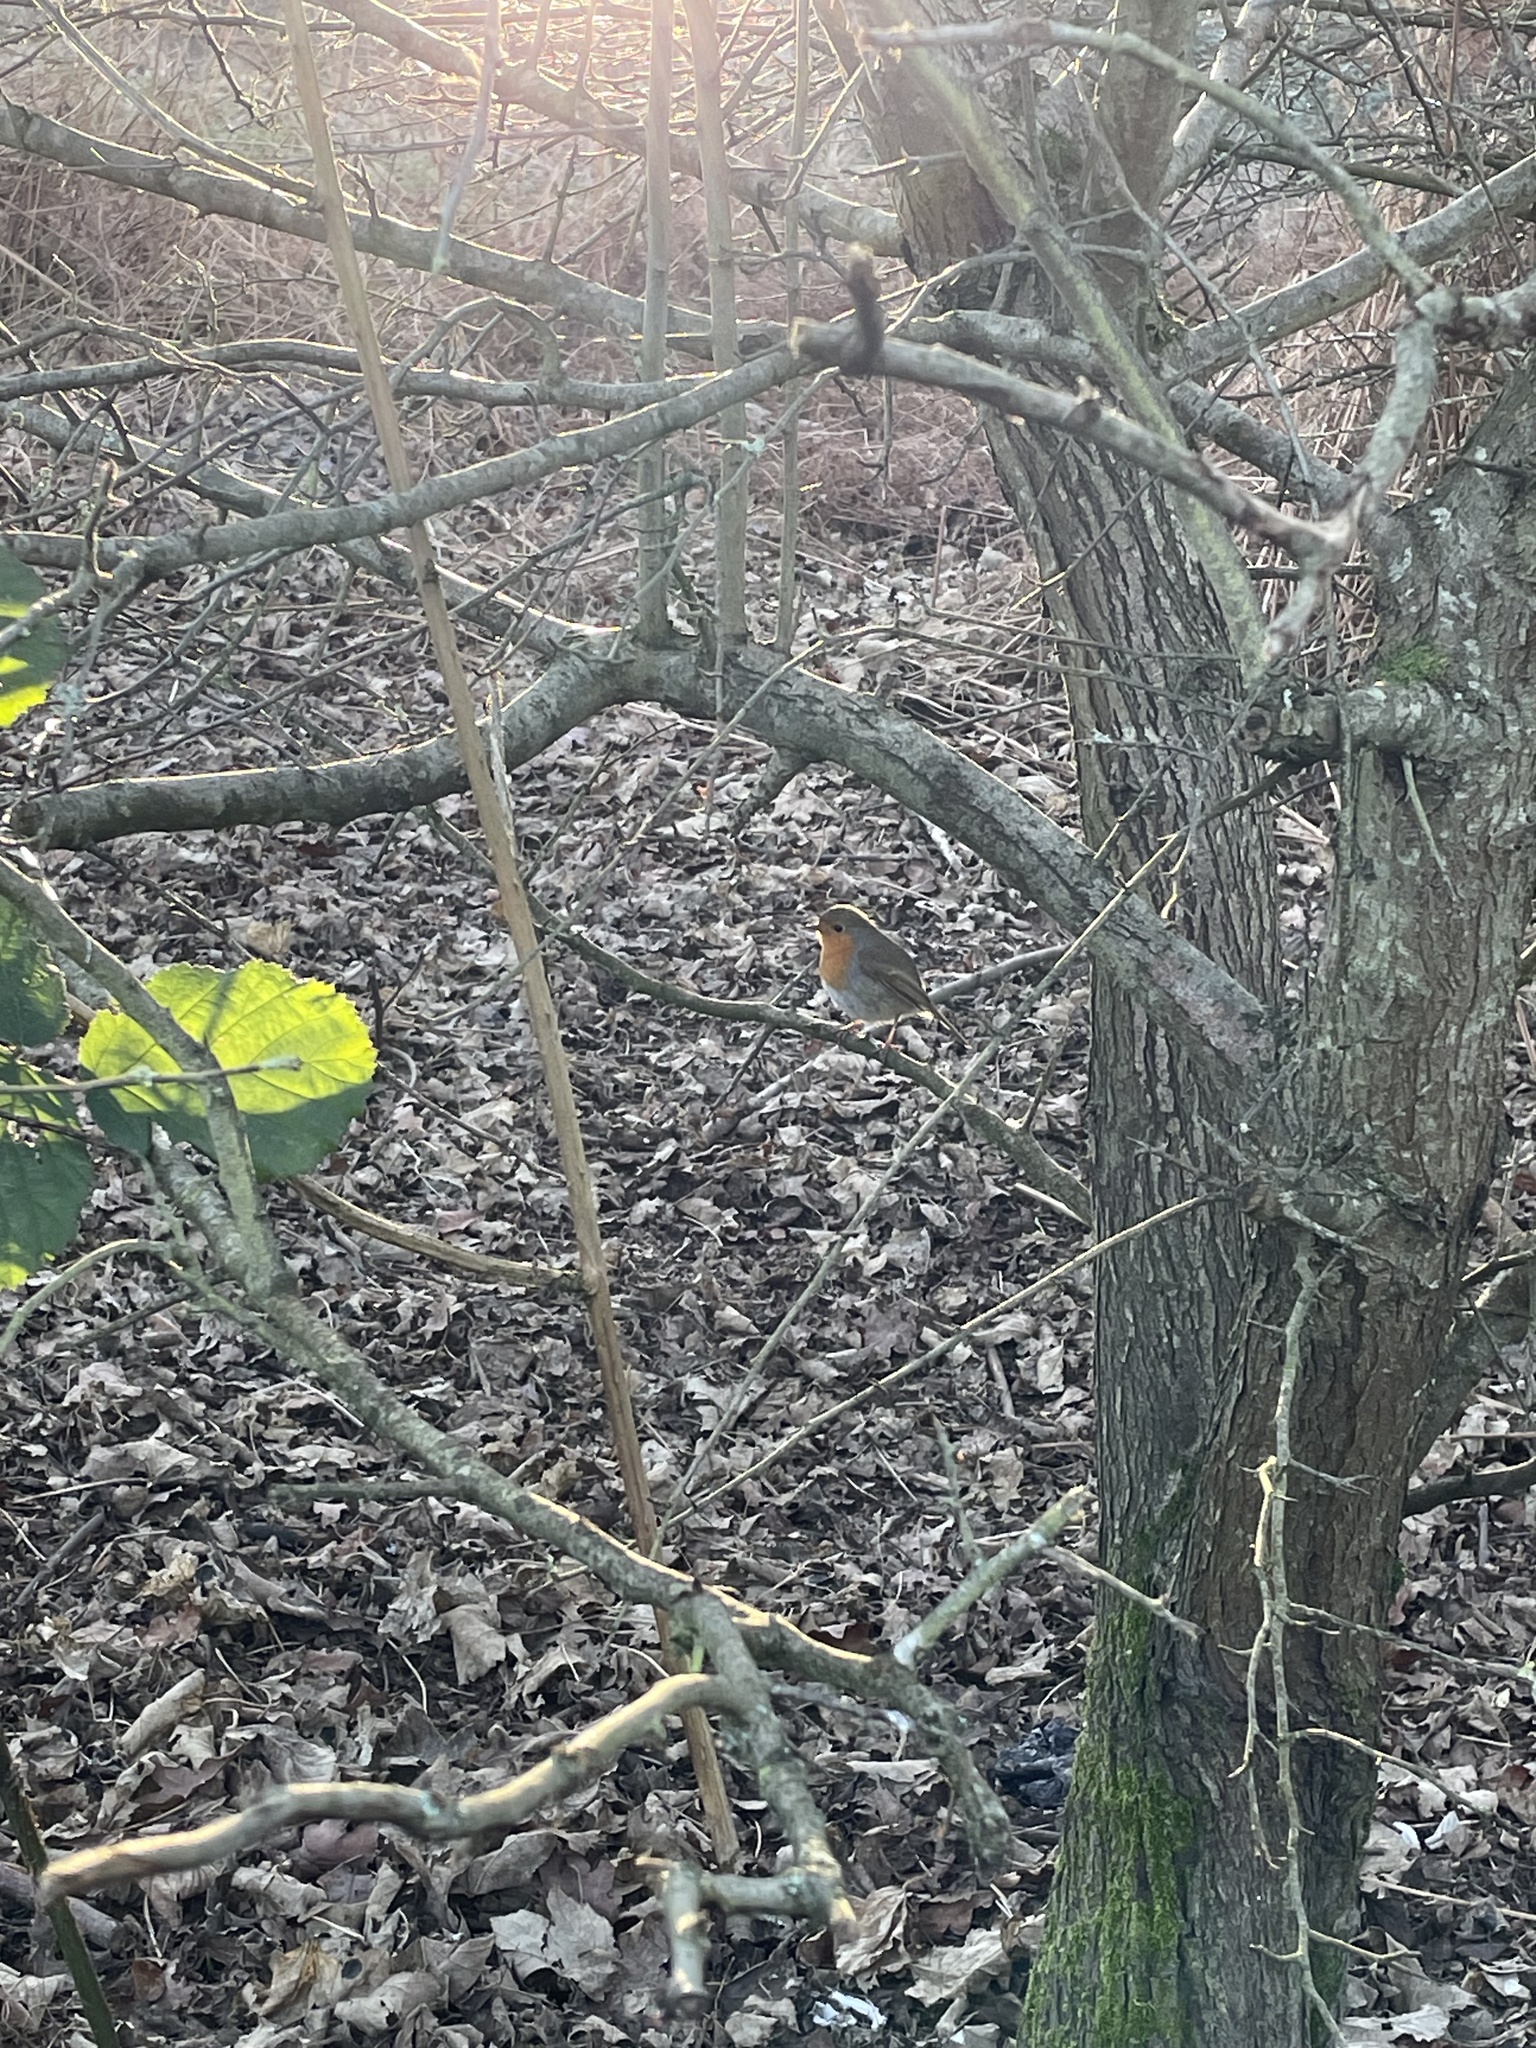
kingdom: Animalia
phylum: Chordata
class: Aves
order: Passeriformes
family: Muscicapidae
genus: Erithacus
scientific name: Erithacus rubecula
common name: European robin
